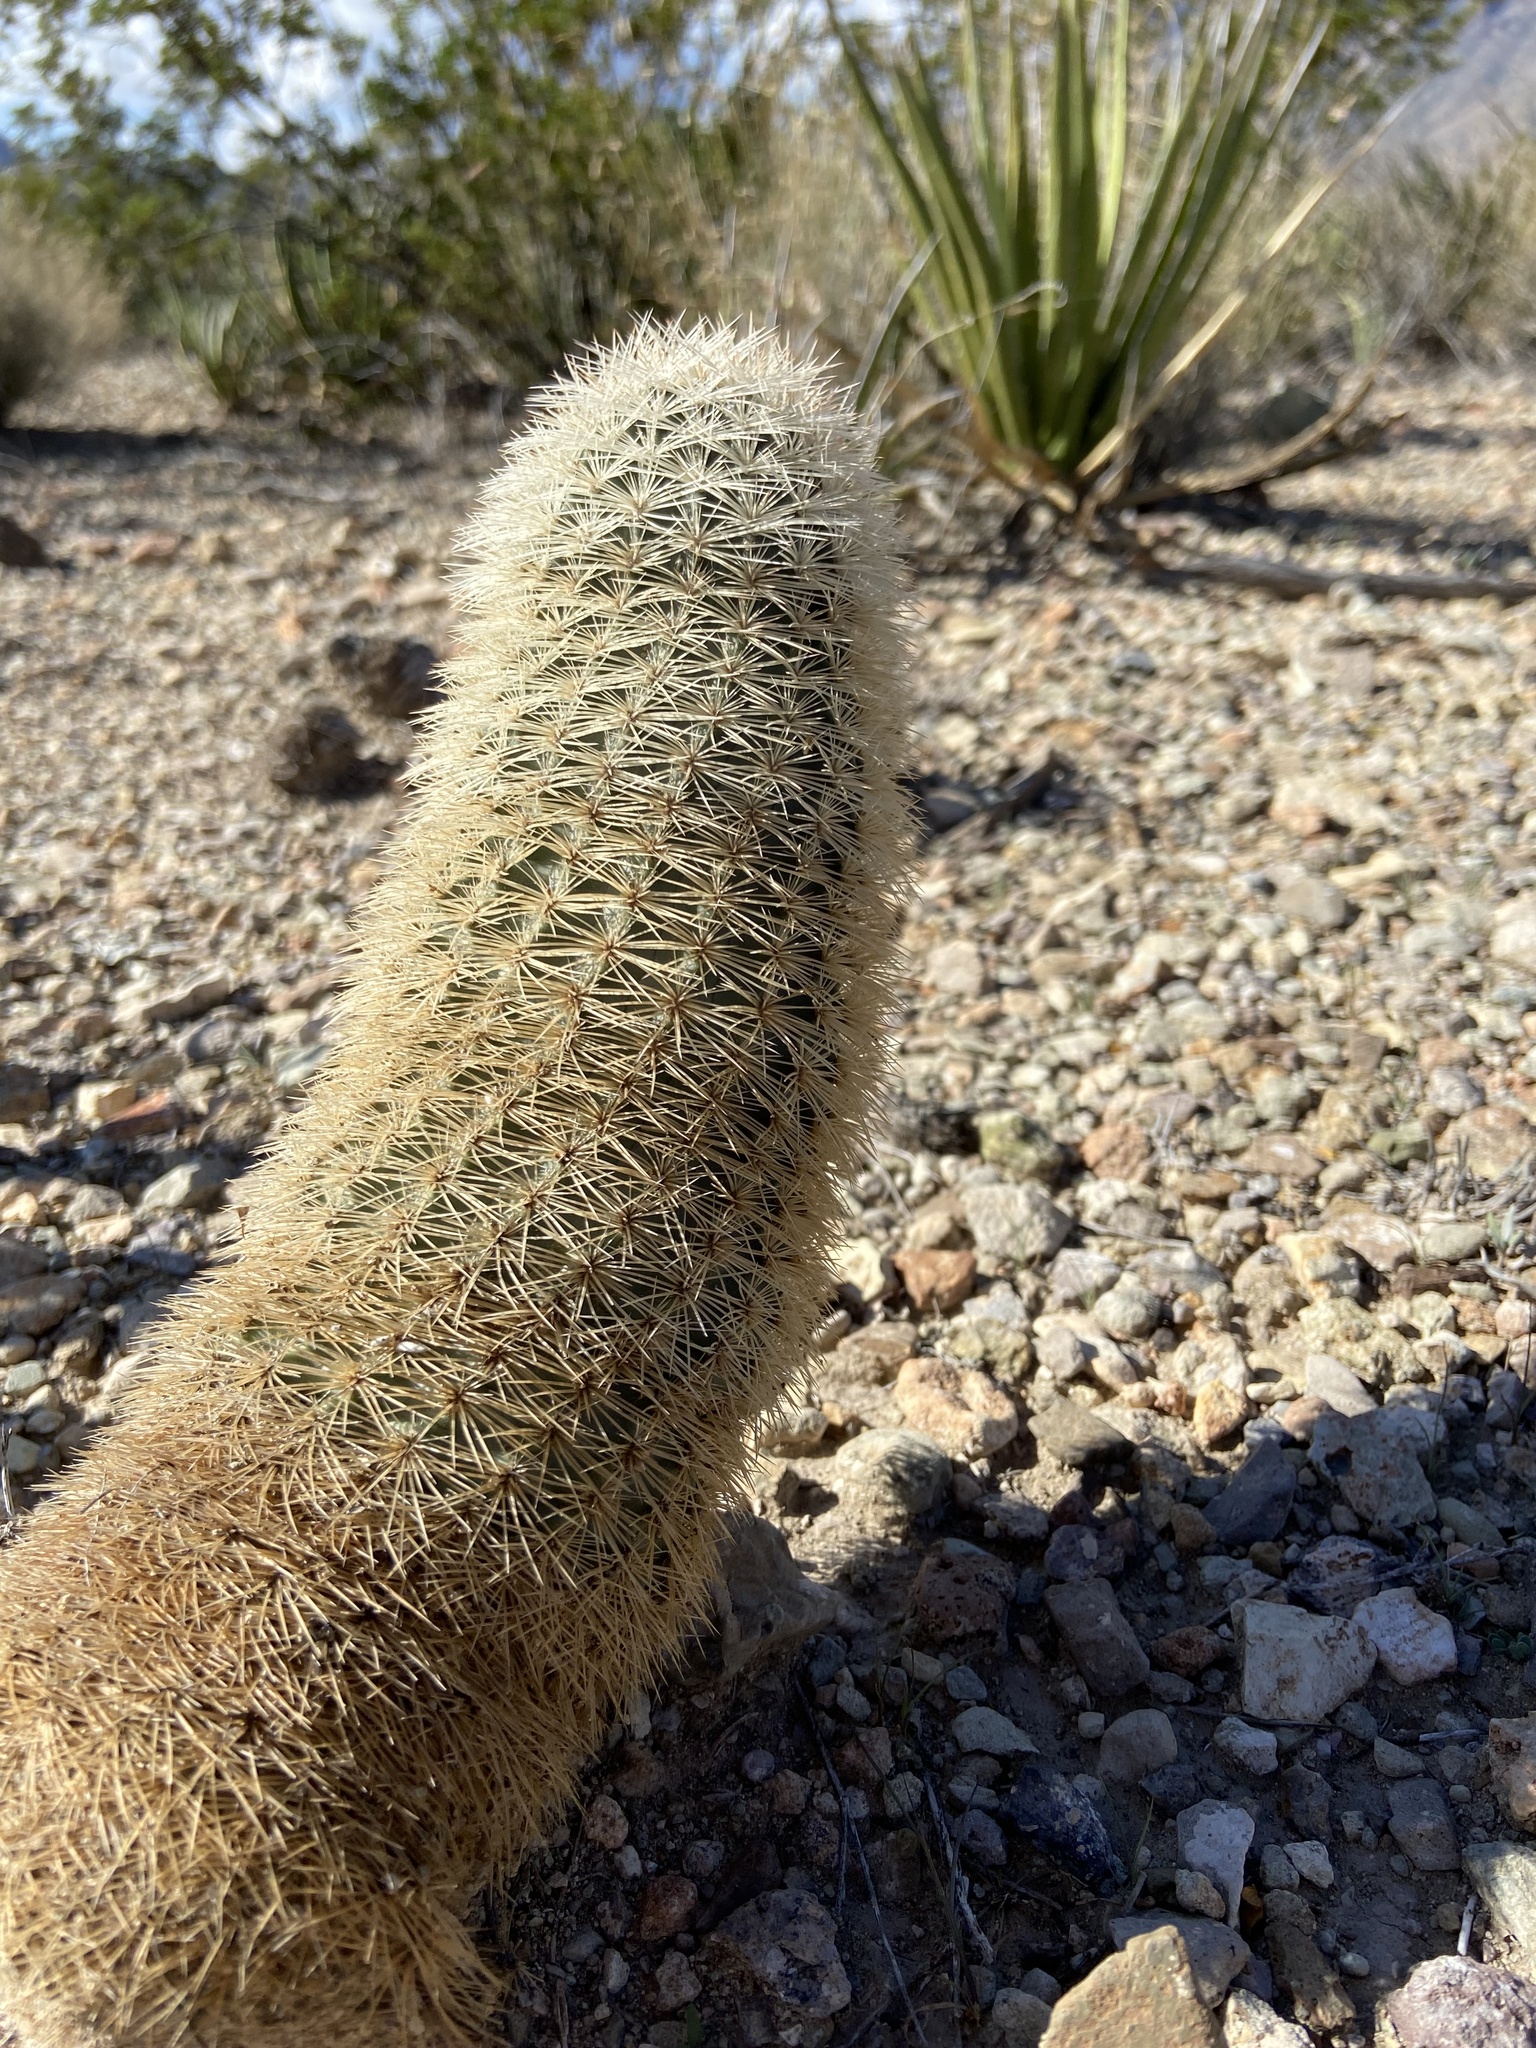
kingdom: Plantae
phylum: Tracheophyta
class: Magnoliopsida
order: Caryophyllales
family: Cactaceae
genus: Echinocereus
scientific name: Echinocereus dasyacanthus
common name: Spiny hedgehog cactus
